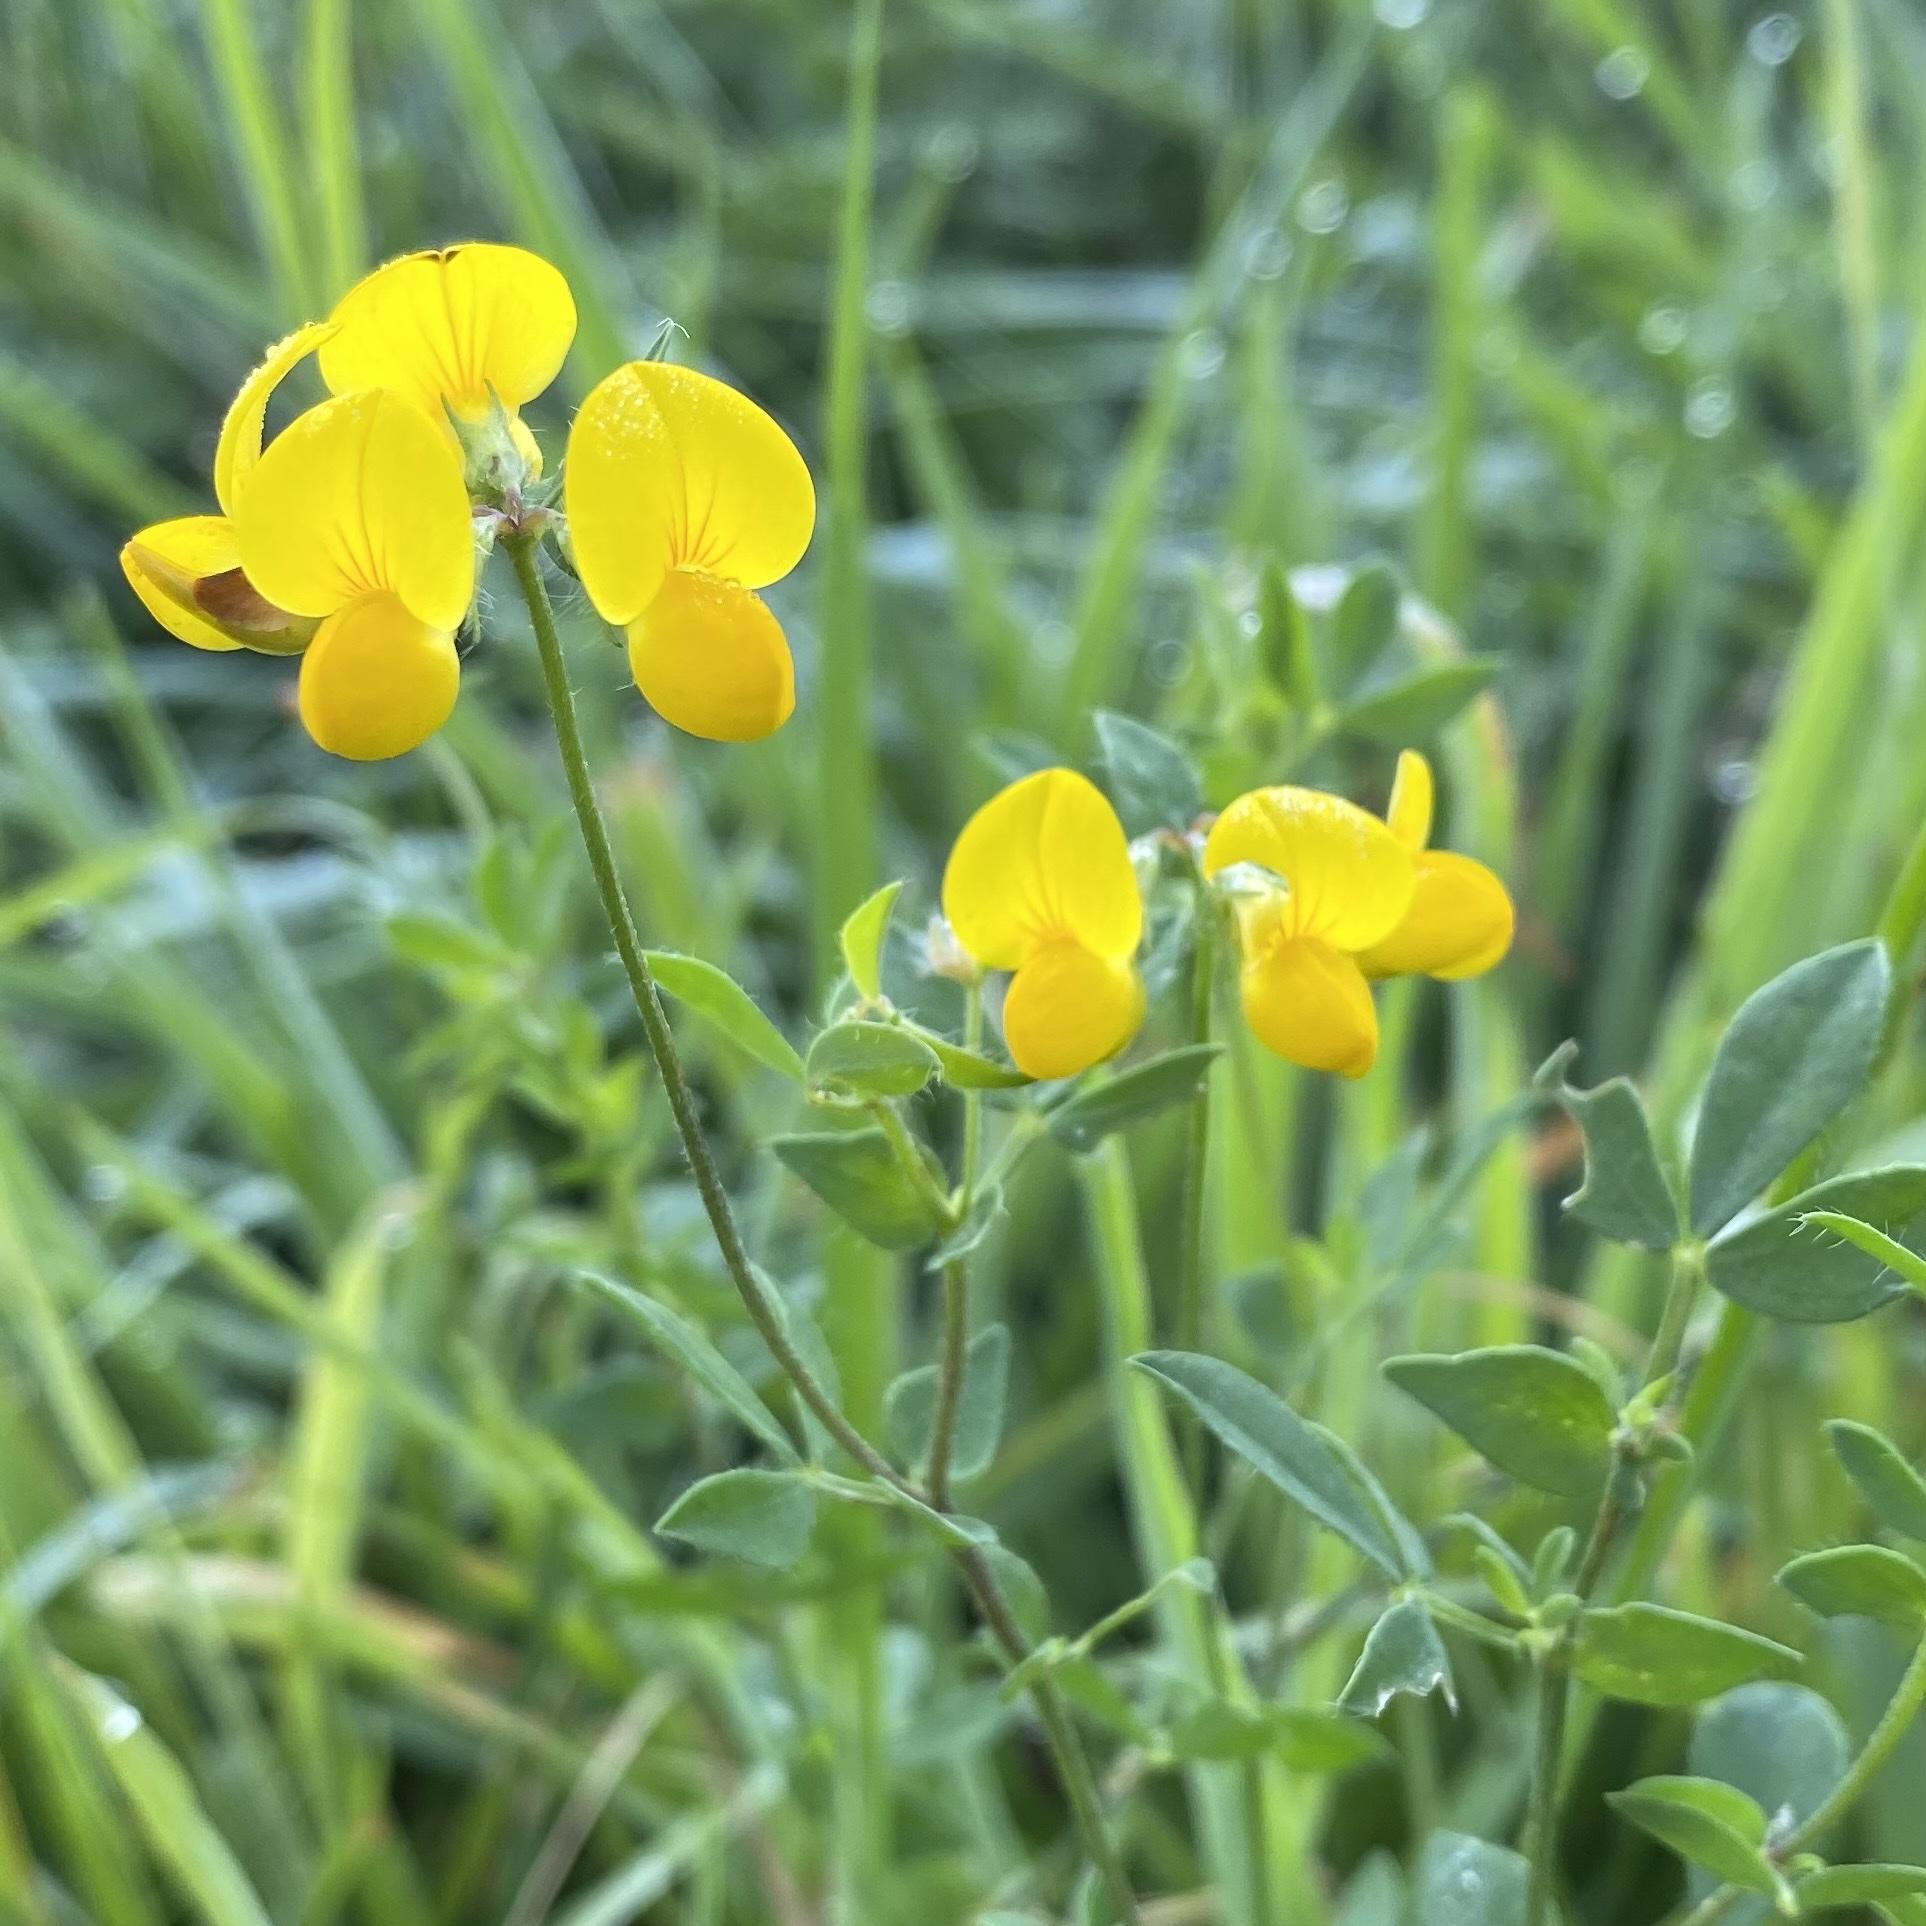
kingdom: Plantae
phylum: Tracheophyta
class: Magnoliopsida
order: Fabales
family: Fabaceae
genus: Lotus
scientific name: Lotus corniculatus
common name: Common bird's-foot-trefoil
